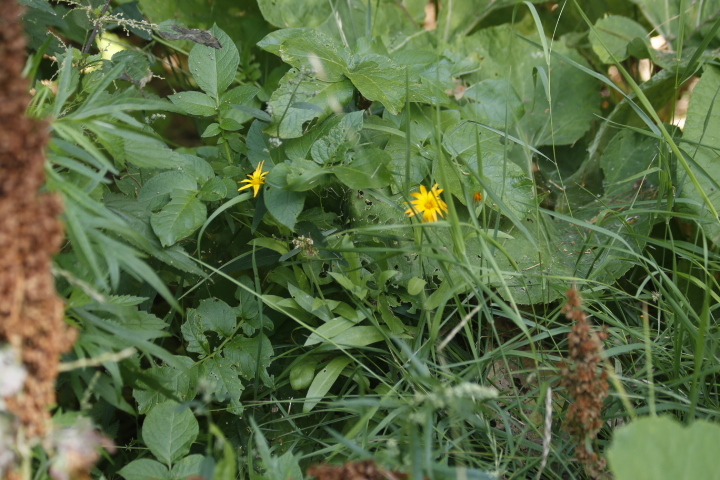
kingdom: Plantae
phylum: Tracheophyta
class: Magnoliopsida
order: Asterales
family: Asteraceae
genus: Calendula
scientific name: Calendula officinalis
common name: Pot marigold
